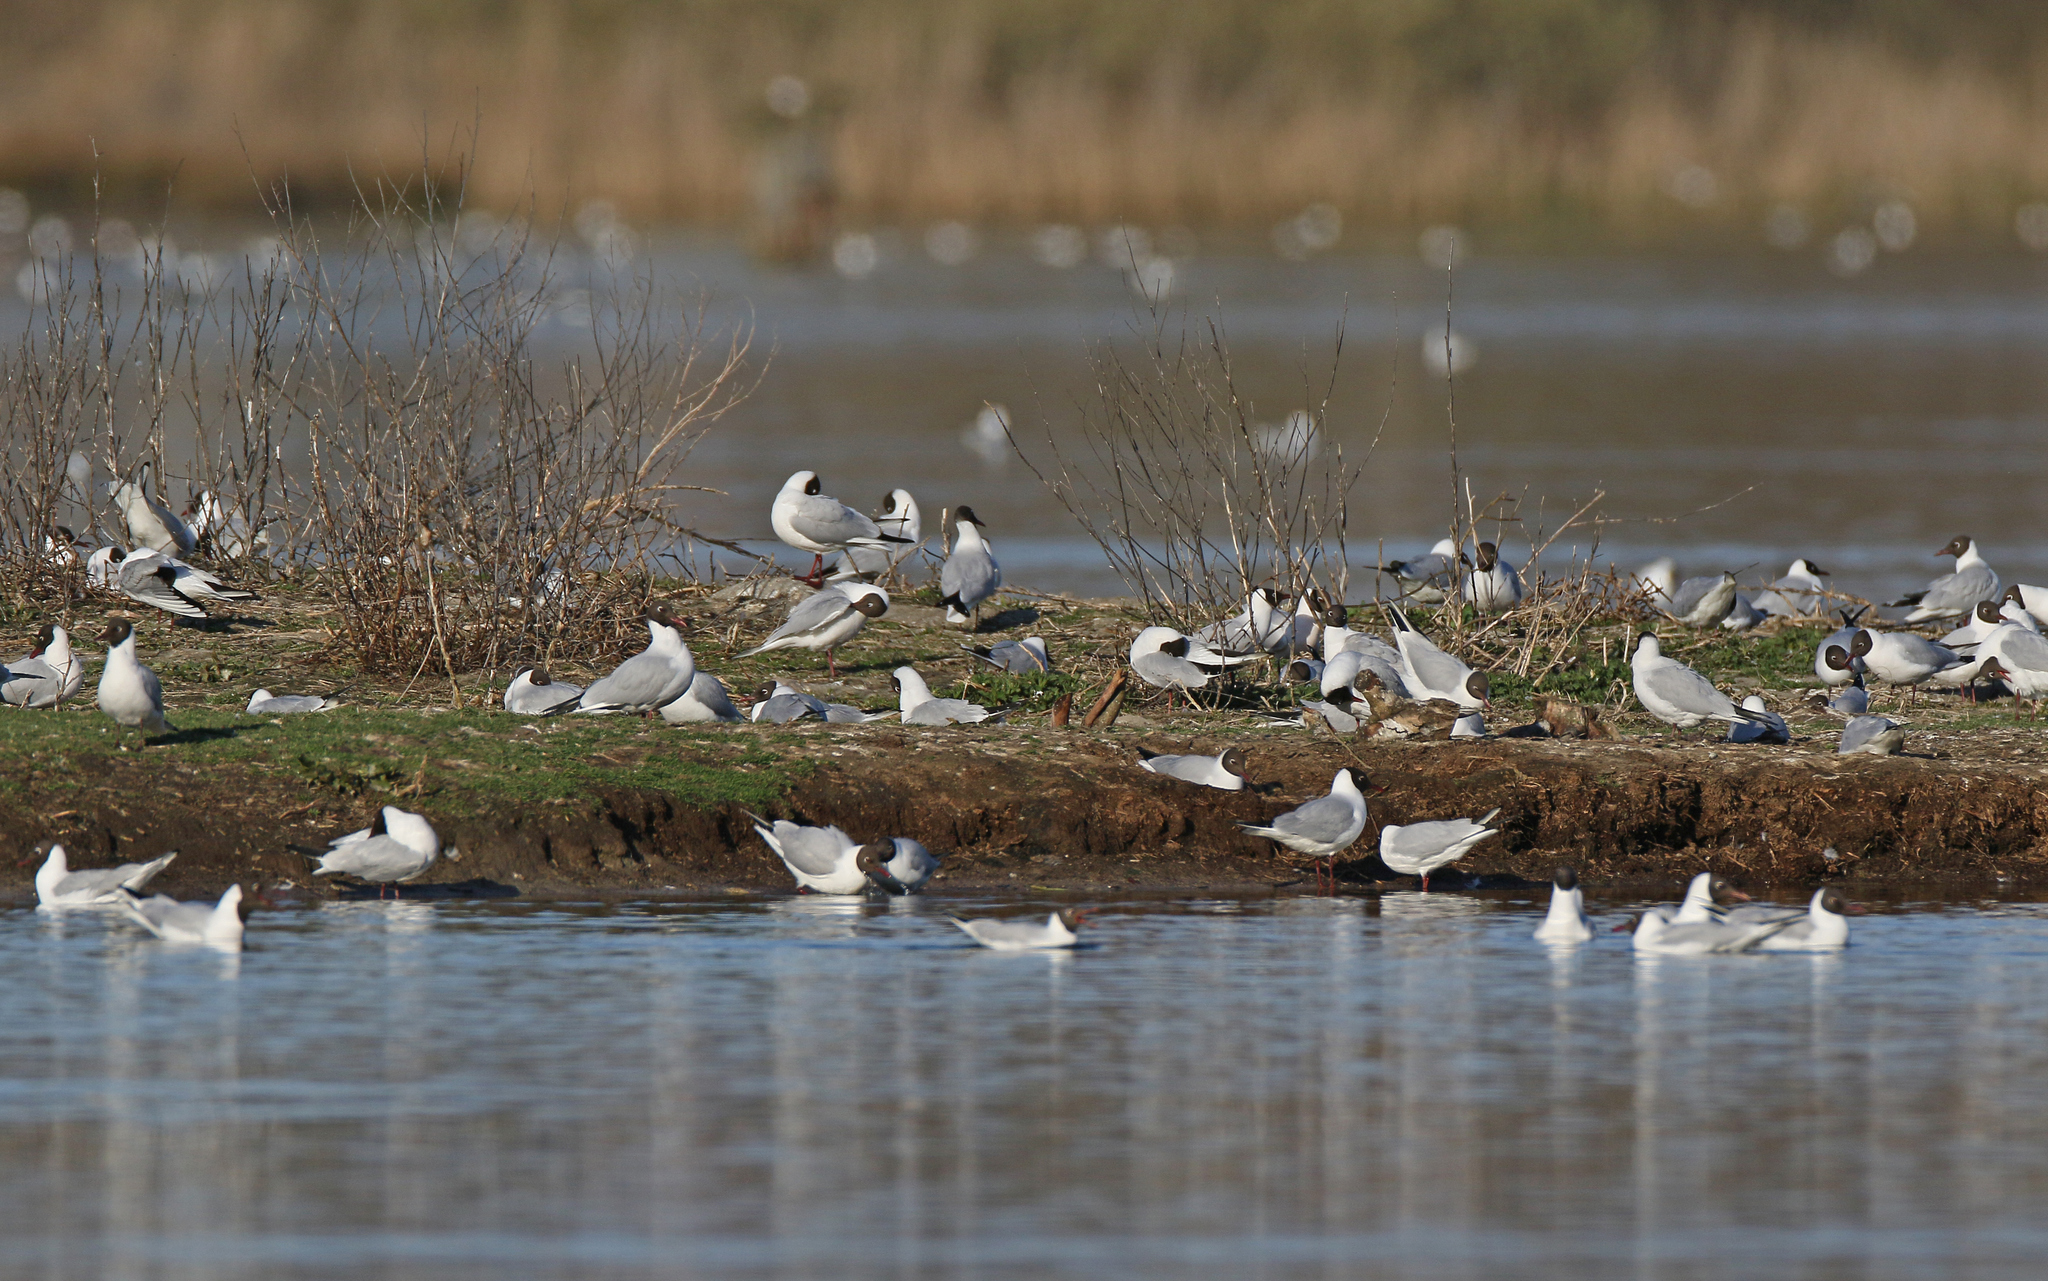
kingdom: Animalia
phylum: Chordata
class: Aves
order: Charadriiformes
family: Laridae
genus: Chroicocephalus
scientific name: Chroicocephalus ridibundus
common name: Black-headed gull
